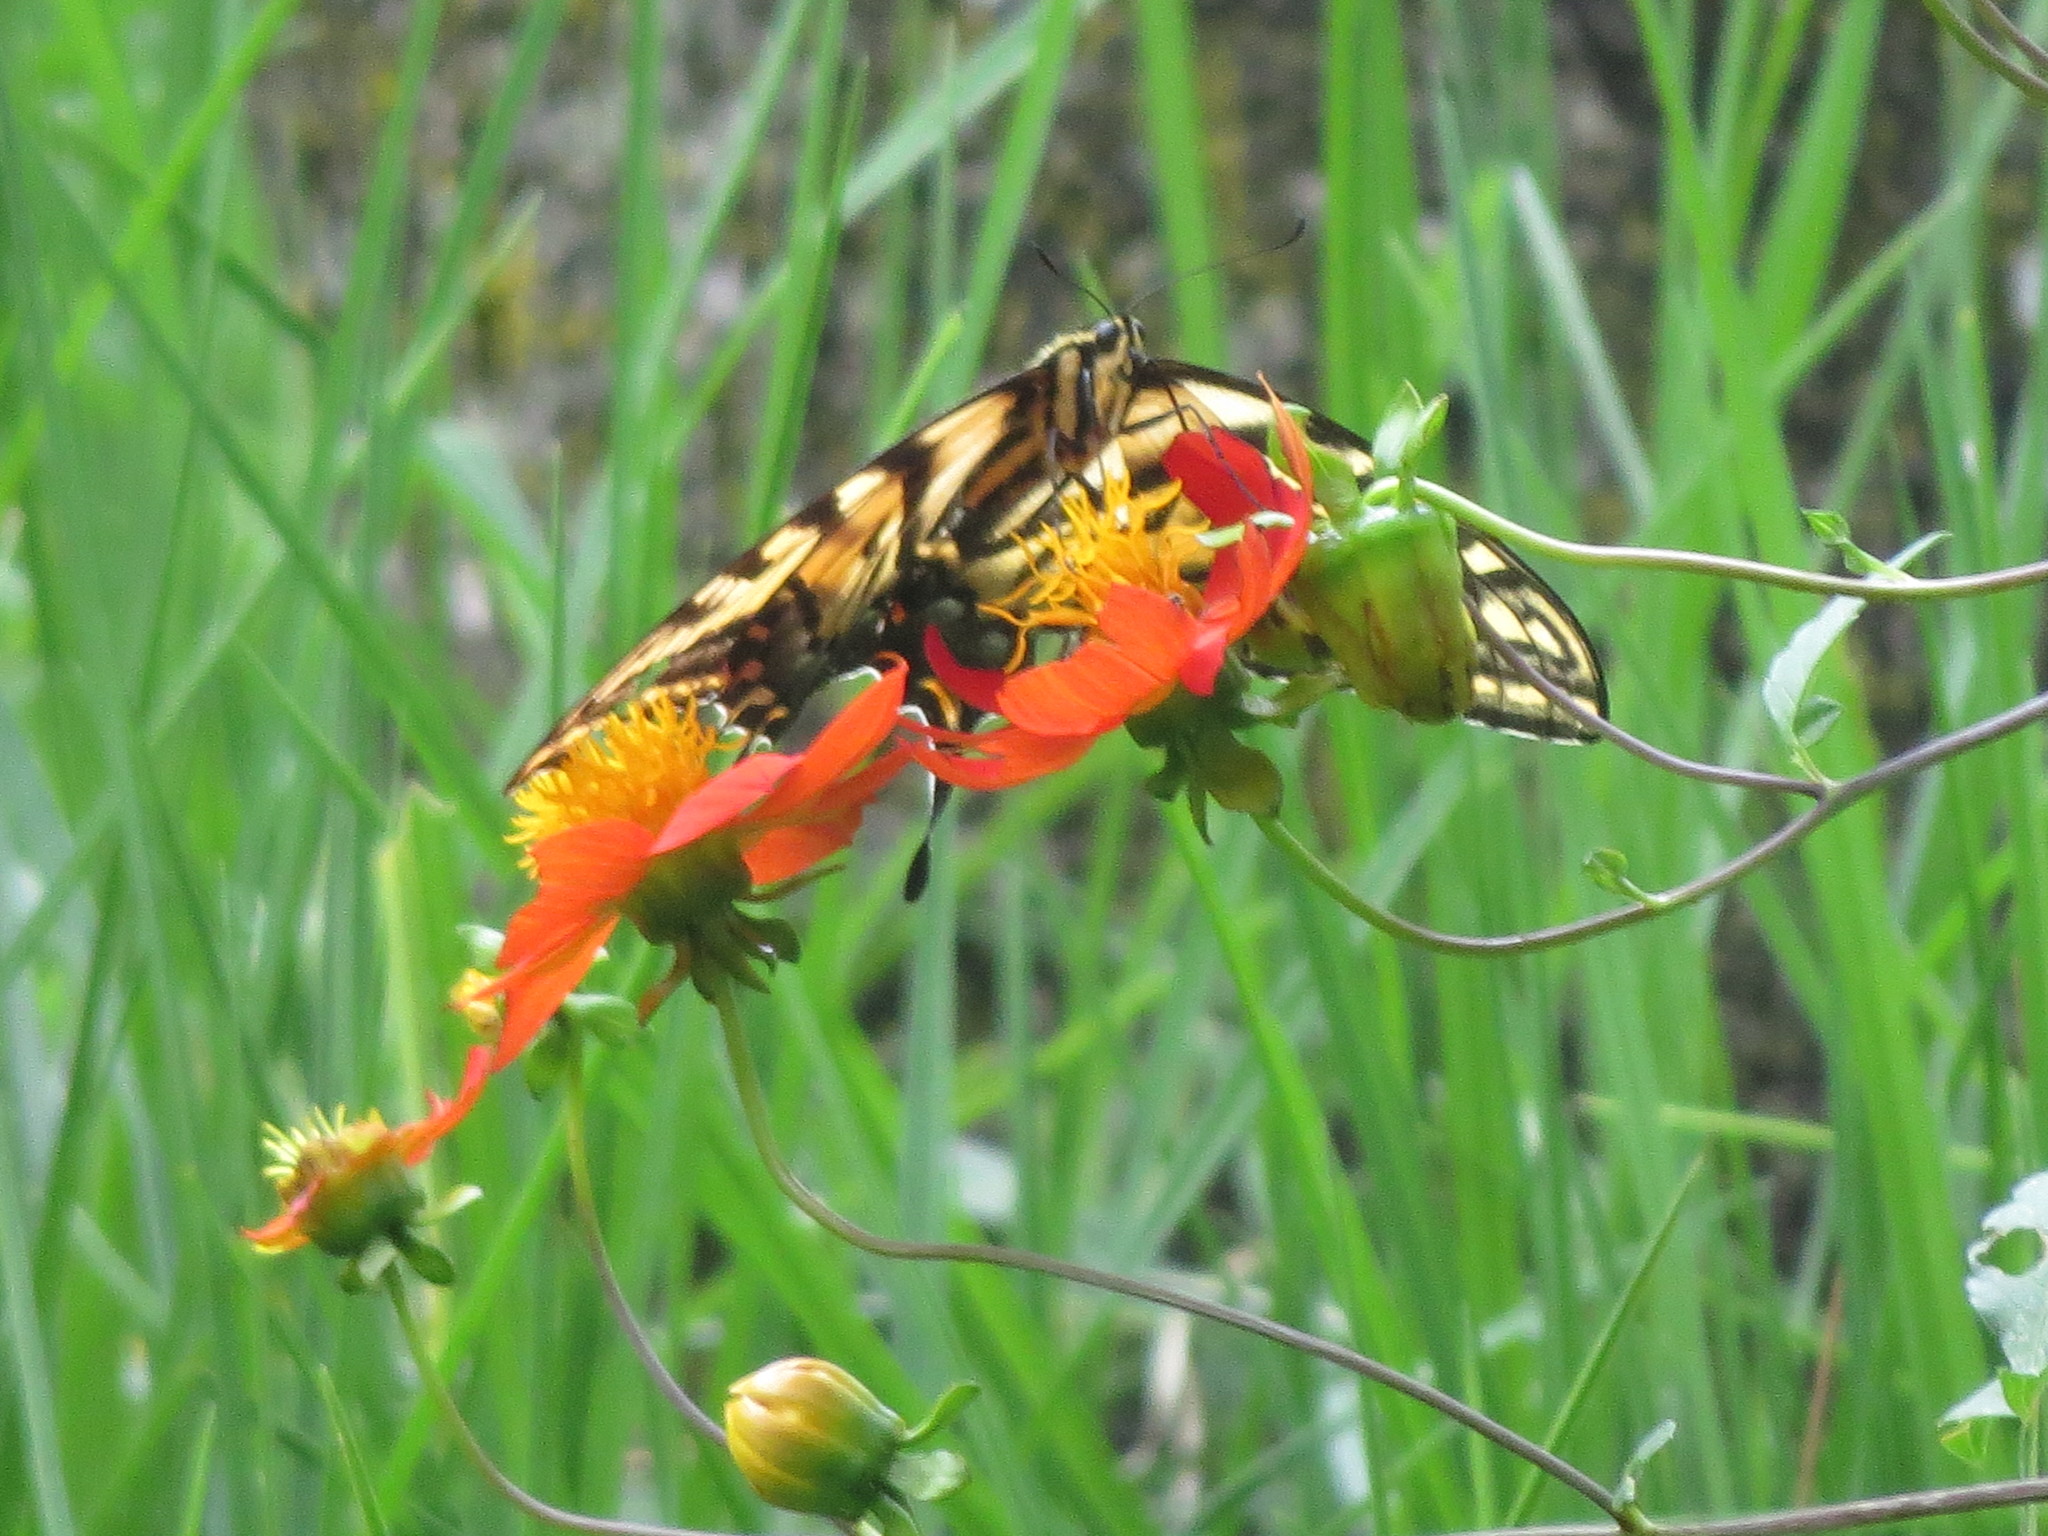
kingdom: Animalia
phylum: Arthropoda
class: Insecta
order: Lepidoptera
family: Papilionidae
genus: Papilio
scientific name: Papilio multicaudata
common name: Two-tailed tiger swallowtail
